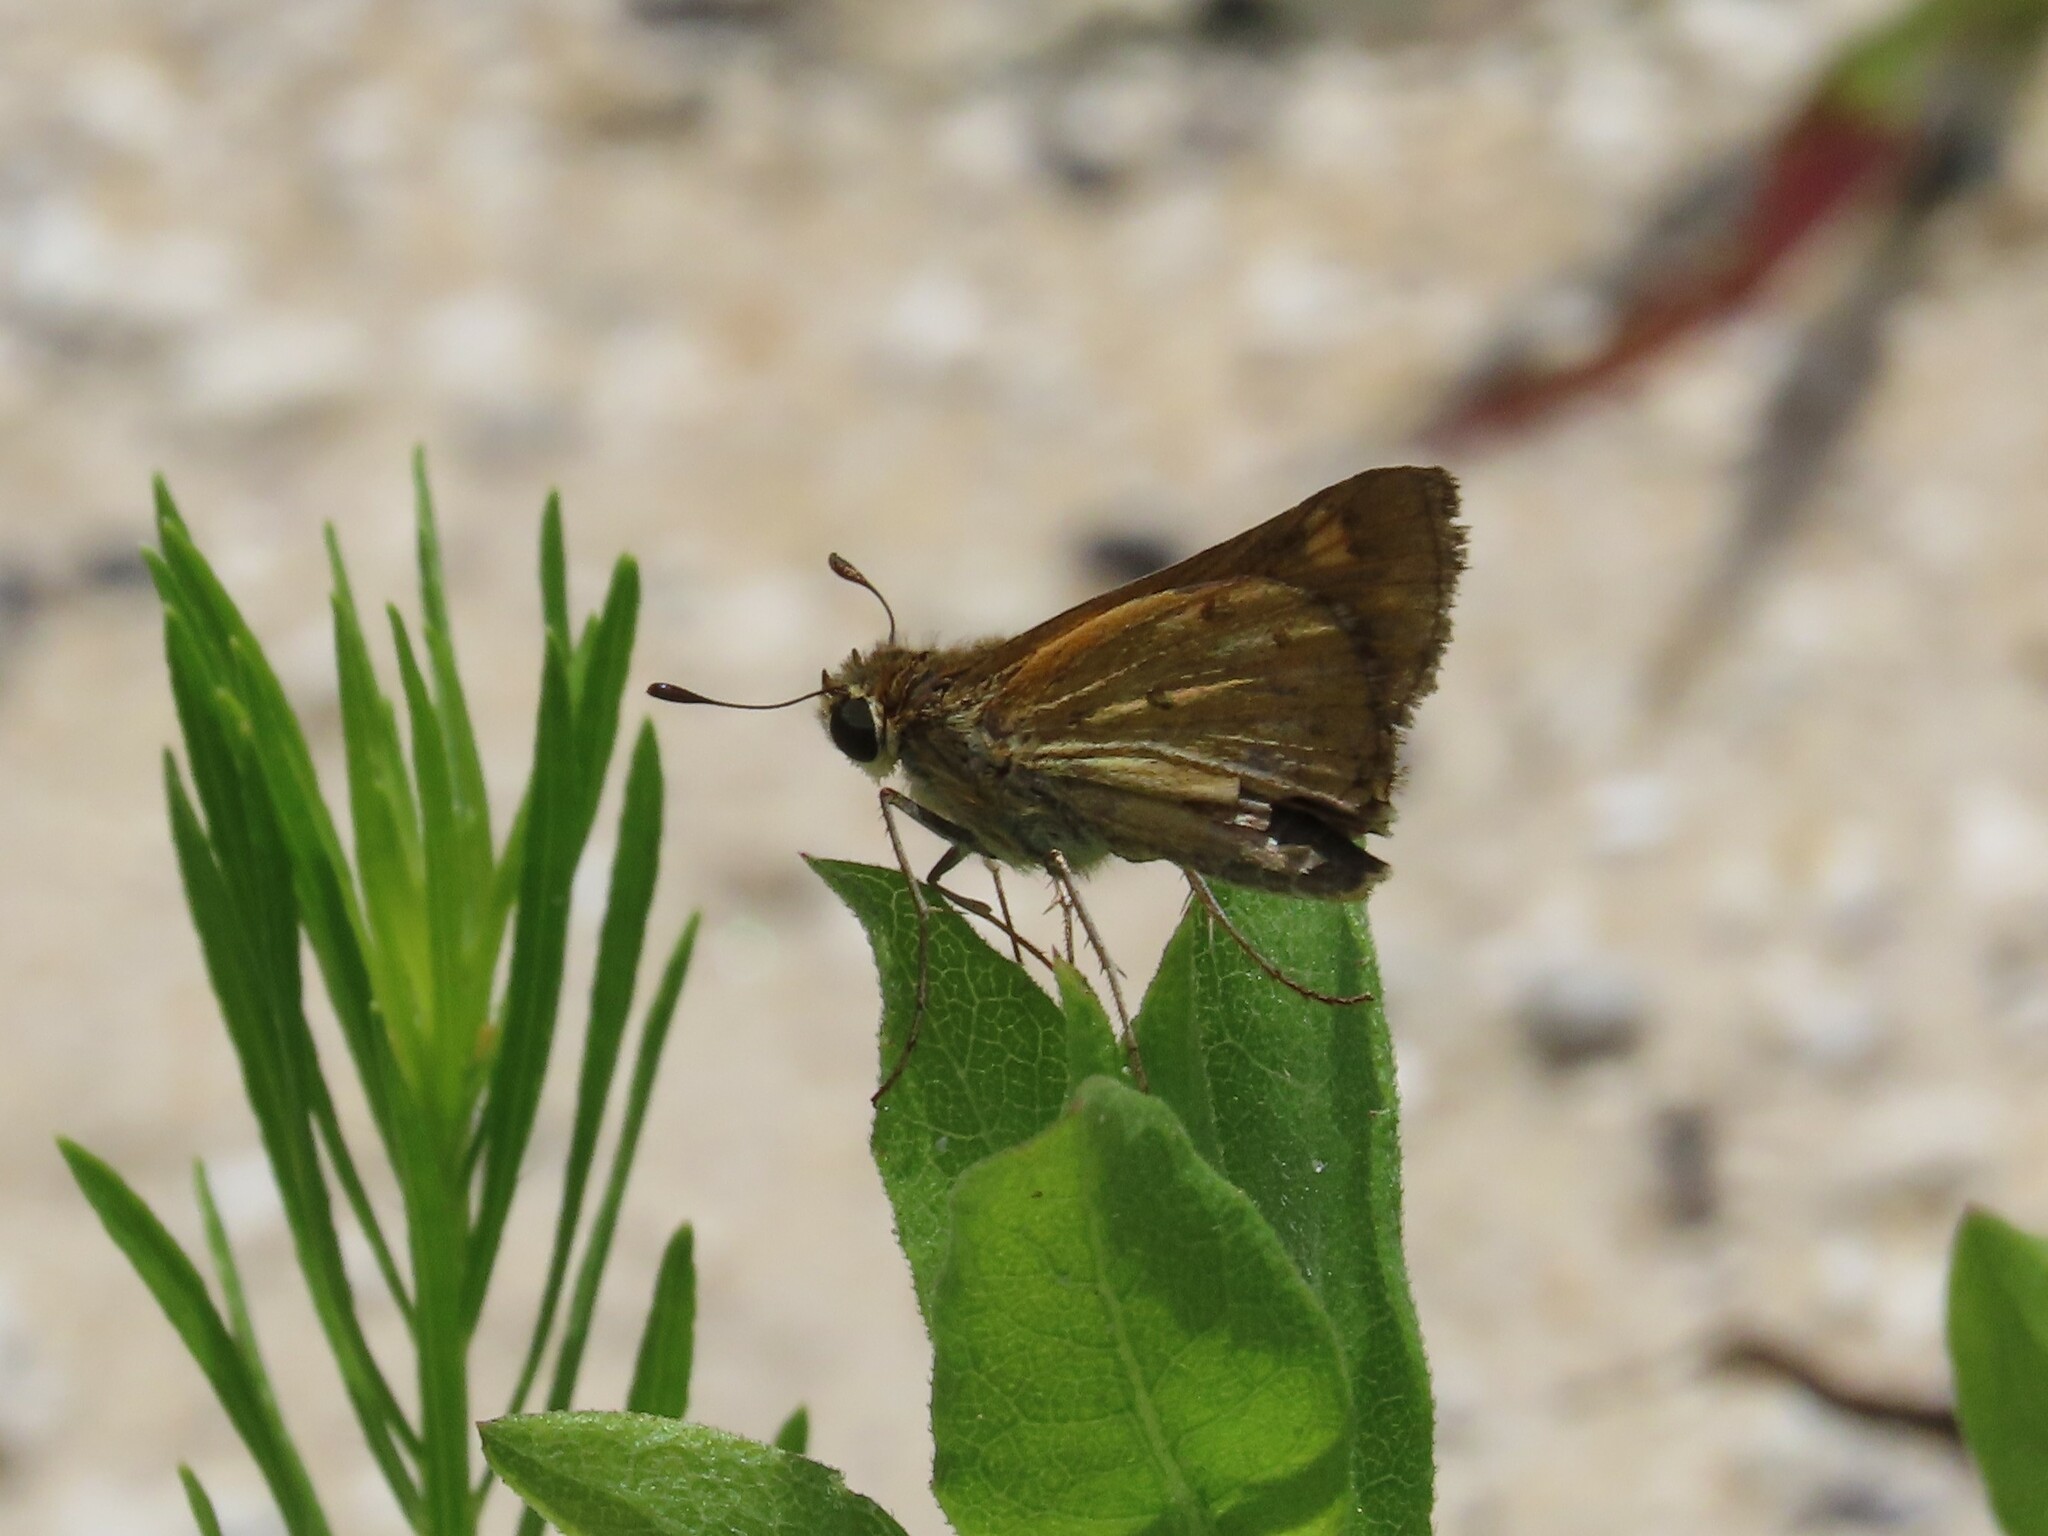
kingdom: Animalia
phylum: Arthropoda
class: Insecta
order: Lepidoptera
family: Hesperiidae
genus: Hylephila
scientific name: Hylephila phyleus
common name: Fiery skipper
